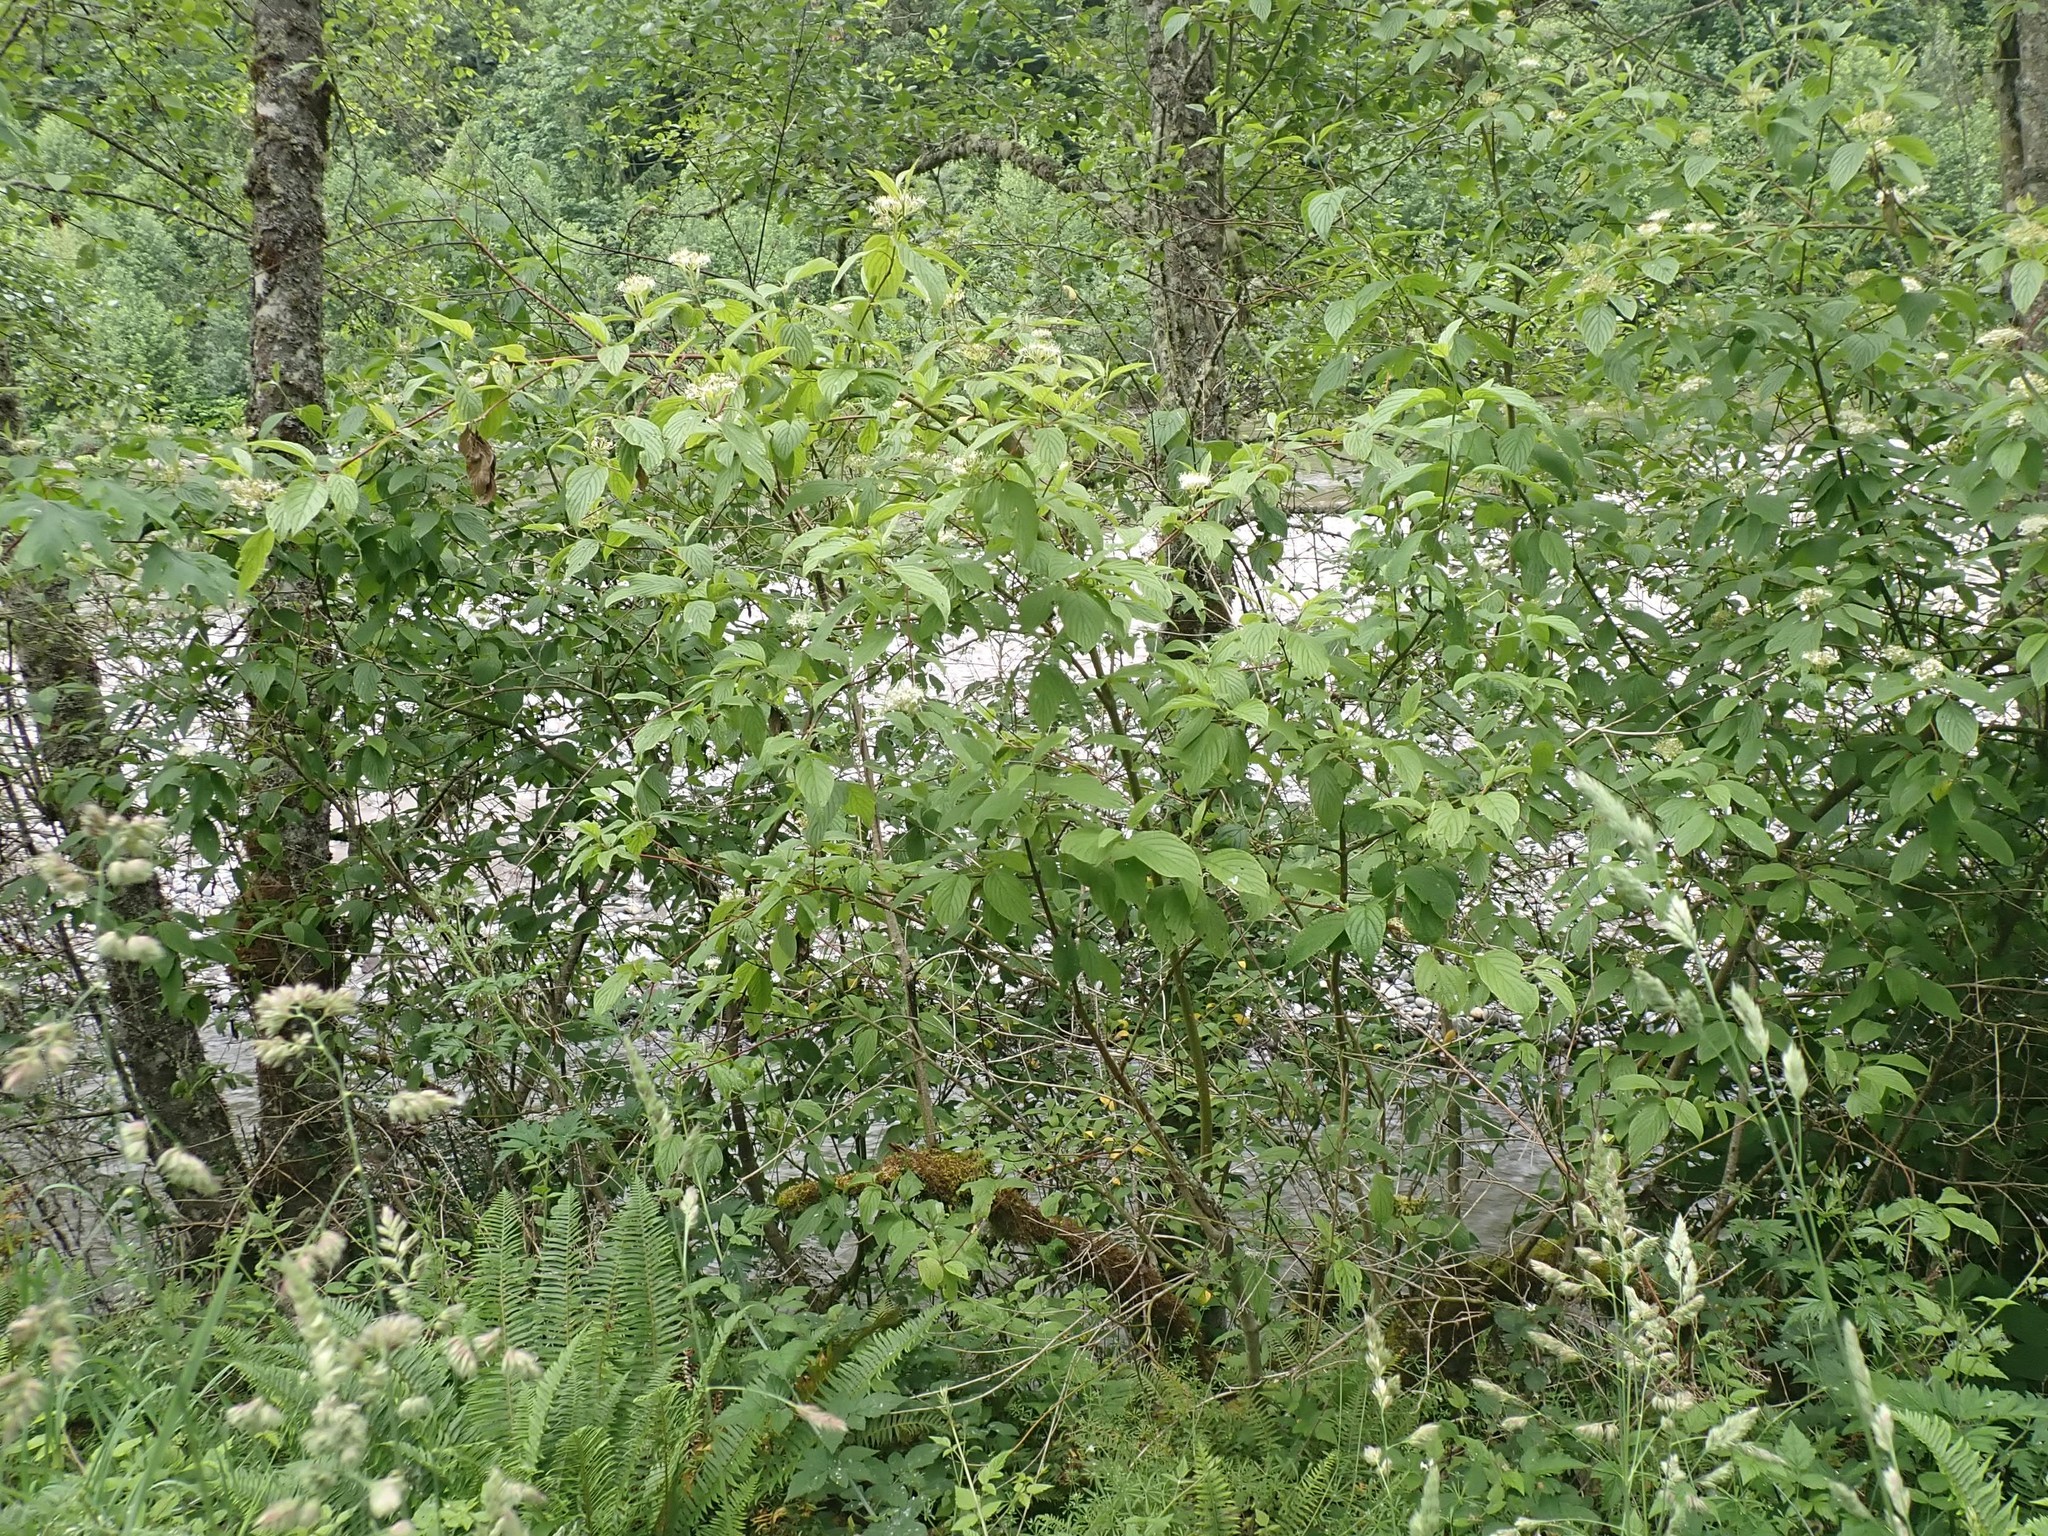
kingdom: Plantae
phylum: Tracheophyta
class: Magnoliopsida
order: Cornales
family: Cornaceae
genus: Cornus
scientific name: Cornus sericea
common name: Red-osier dogwood
